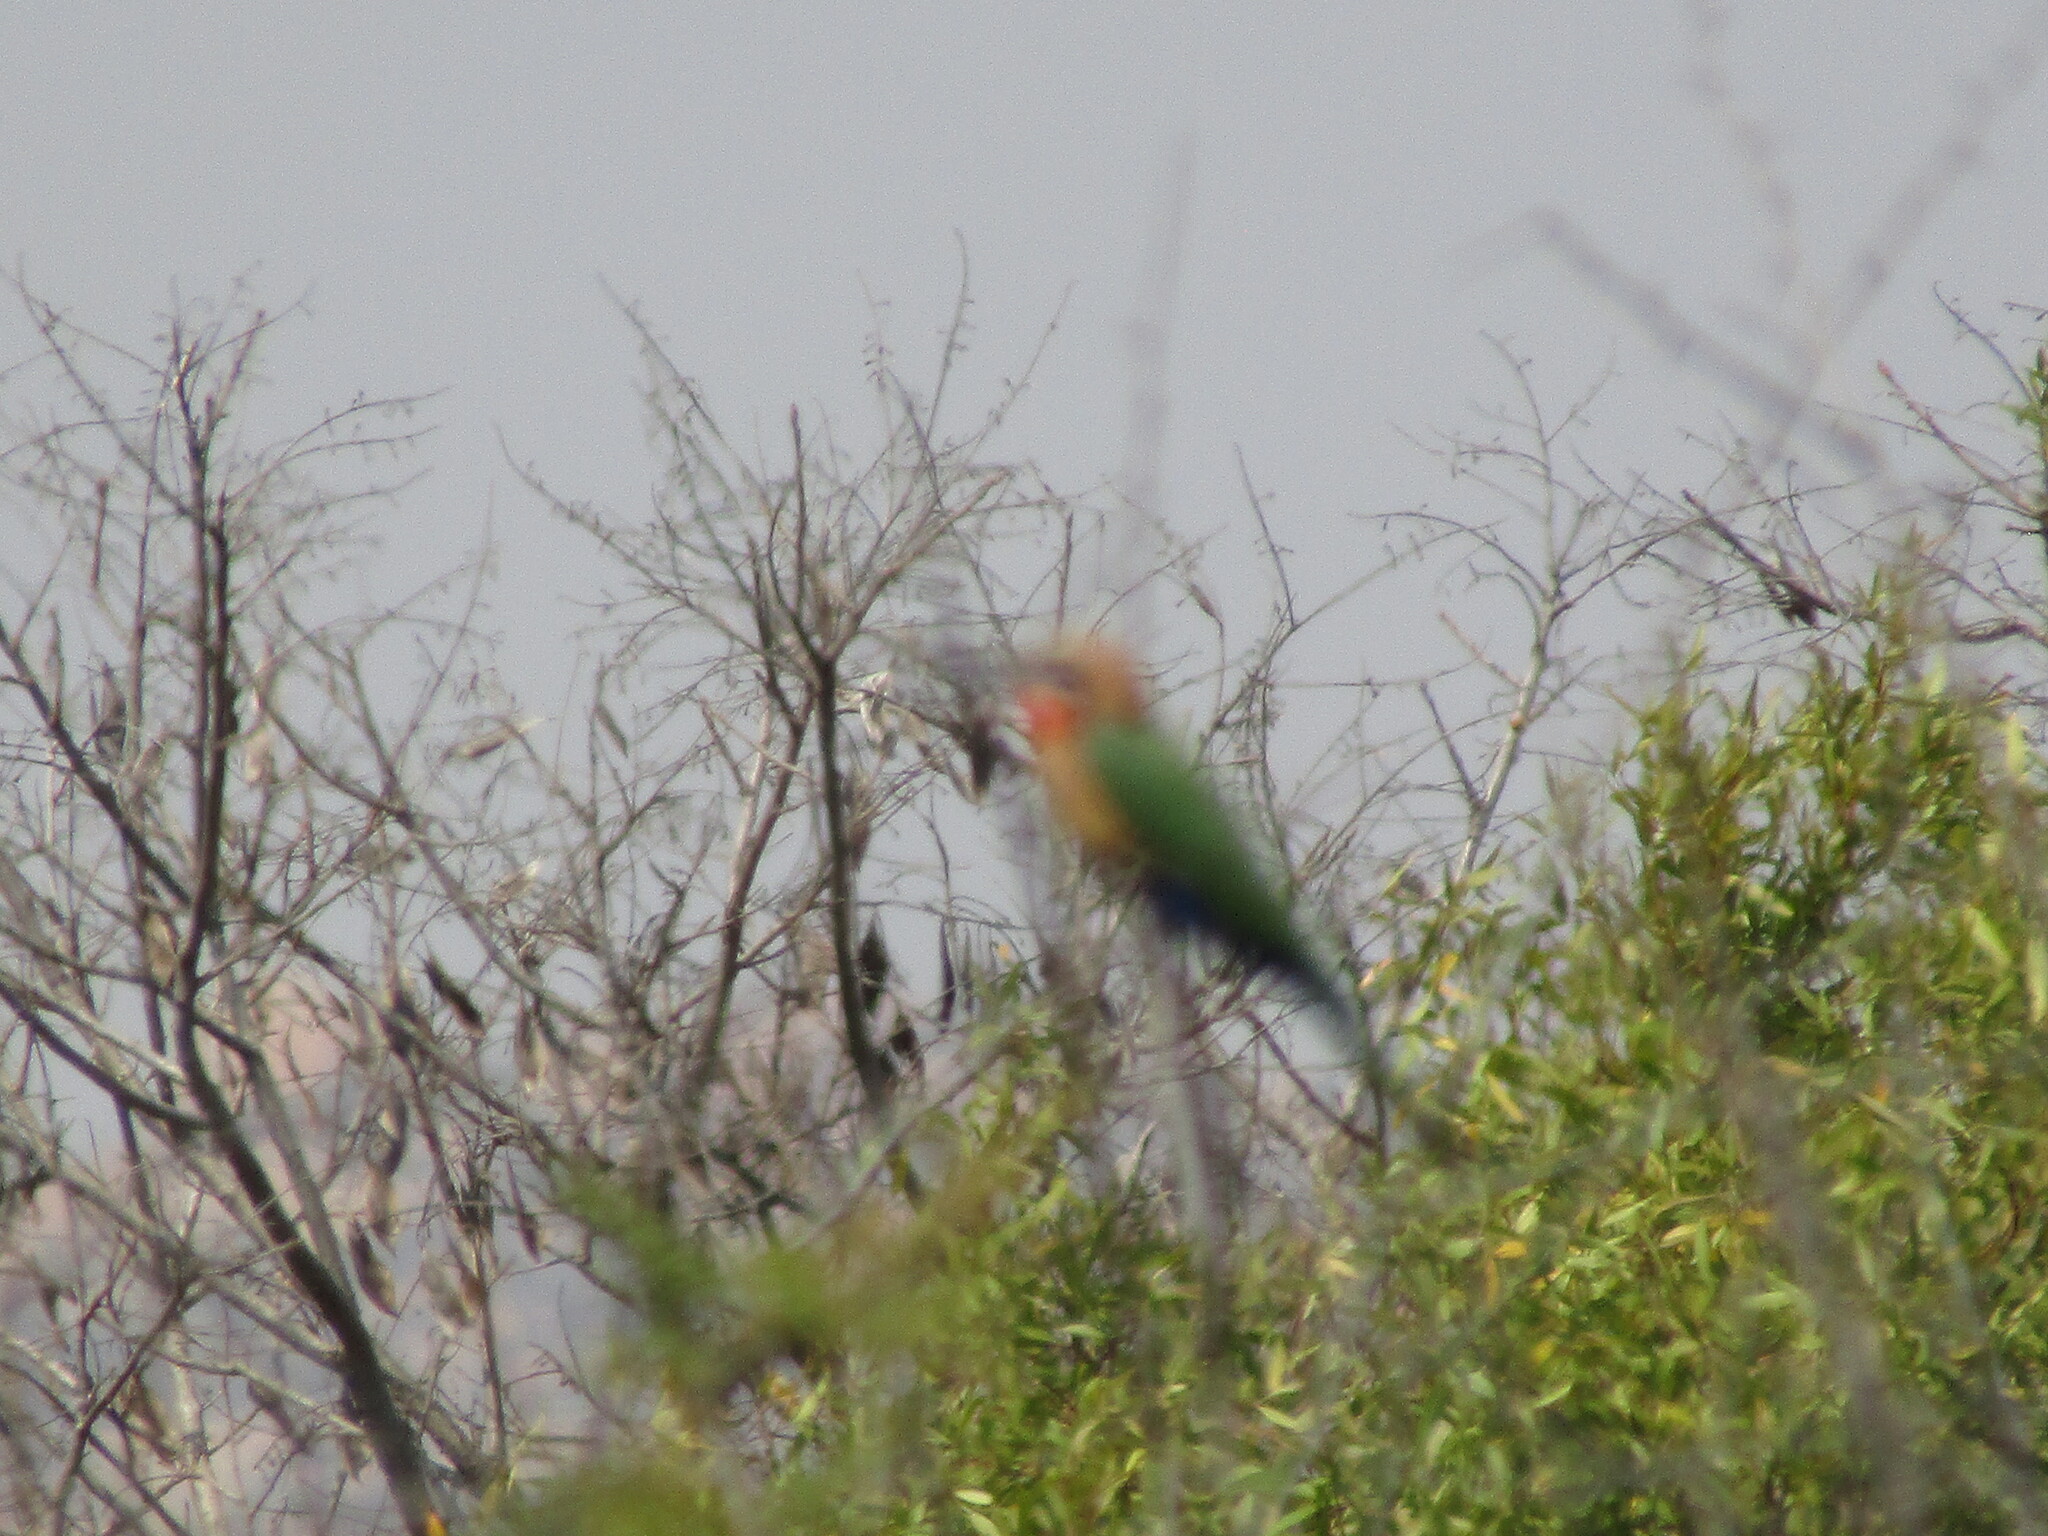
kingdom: Animalia
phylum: Chordata
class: Aves
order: Coraciiformes
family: Meropidae
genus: Merops
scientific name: Merops pusillus
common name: Little bee-eater
